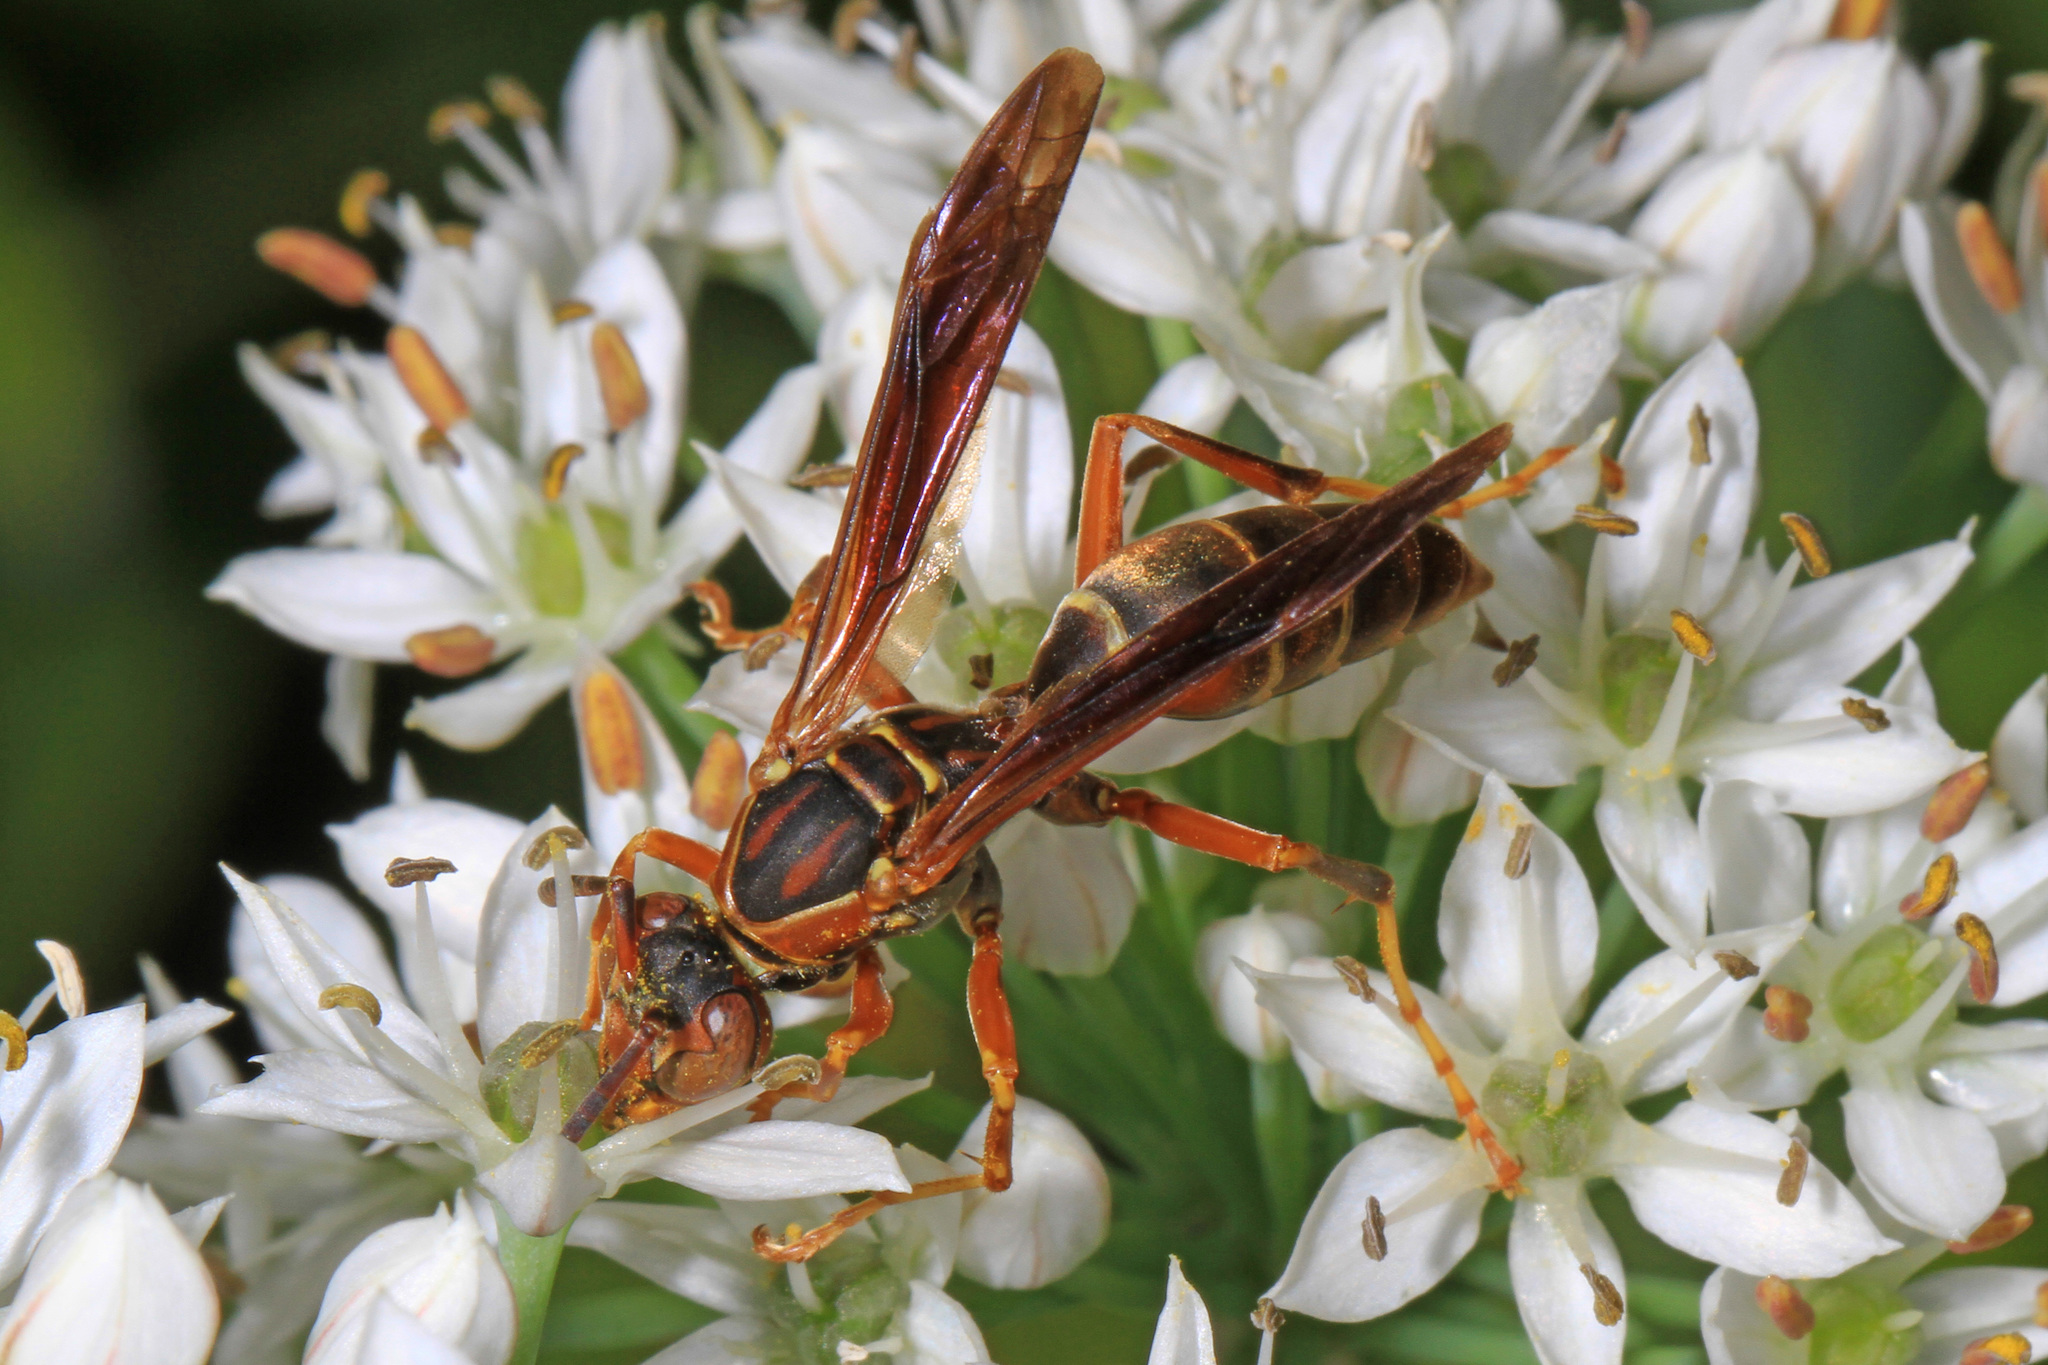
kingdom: Animalia
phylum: Arthropoda
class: Insecta
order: Hymenoptera
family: Eumenidae
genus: Polistes
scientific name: Polistes fuscatus
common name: Dark paper wasp
